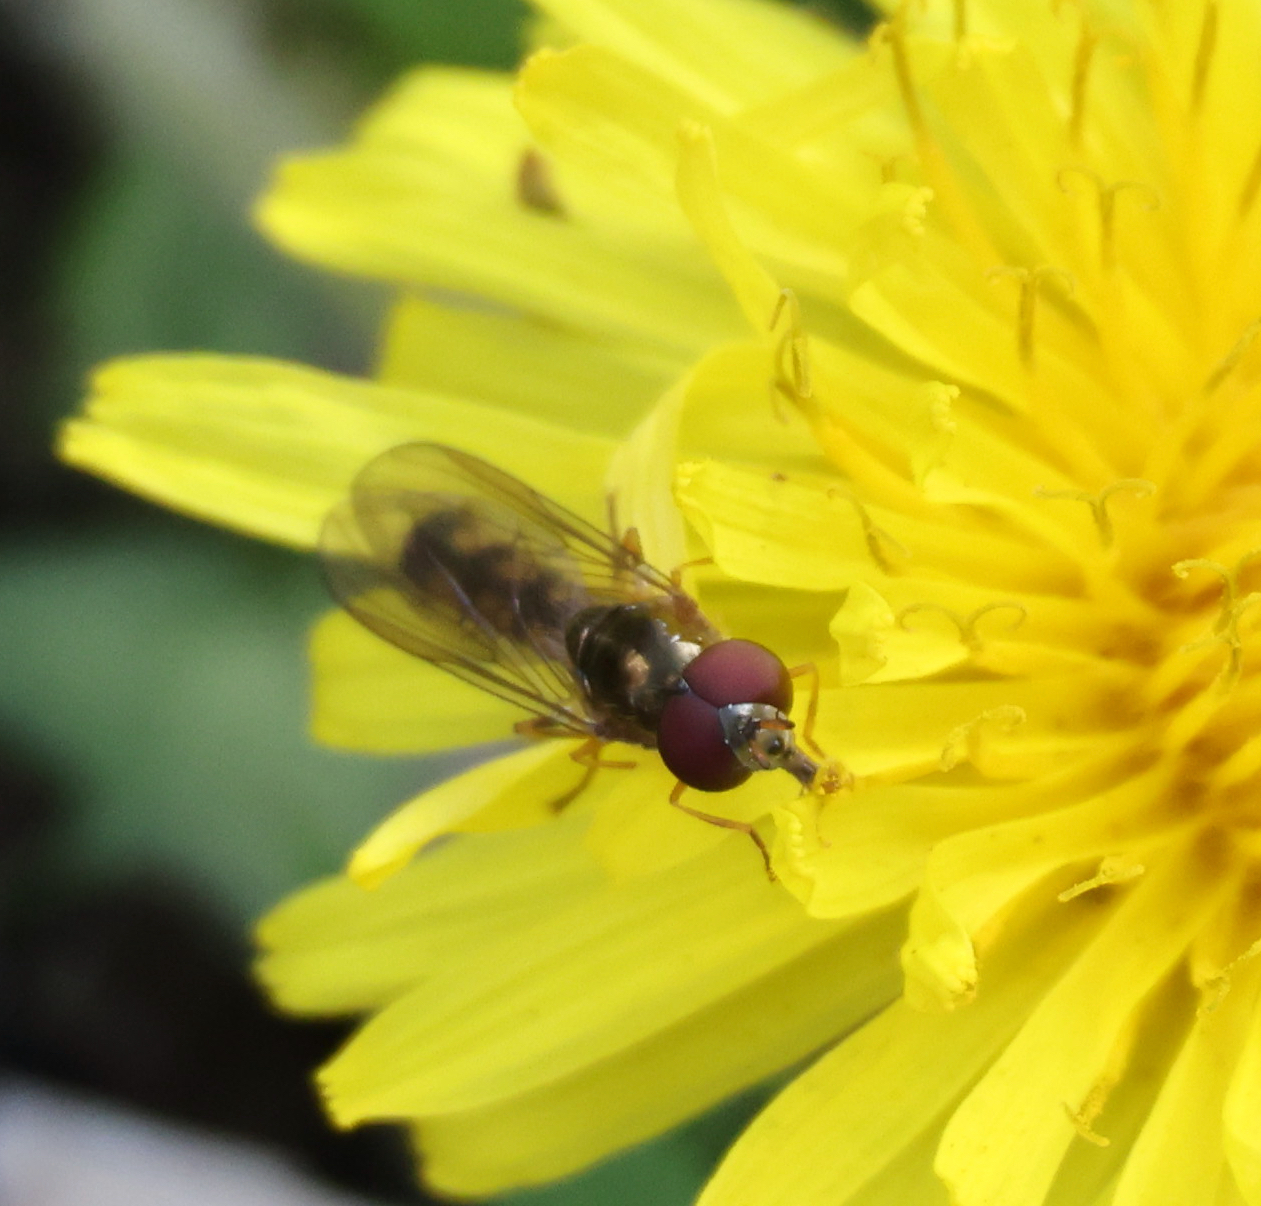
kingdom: Animalia
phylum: Arthropoda
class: Insecta
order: Diptera
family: Syrphidae
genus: Melanostoma
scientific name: Melanostoma scalare
